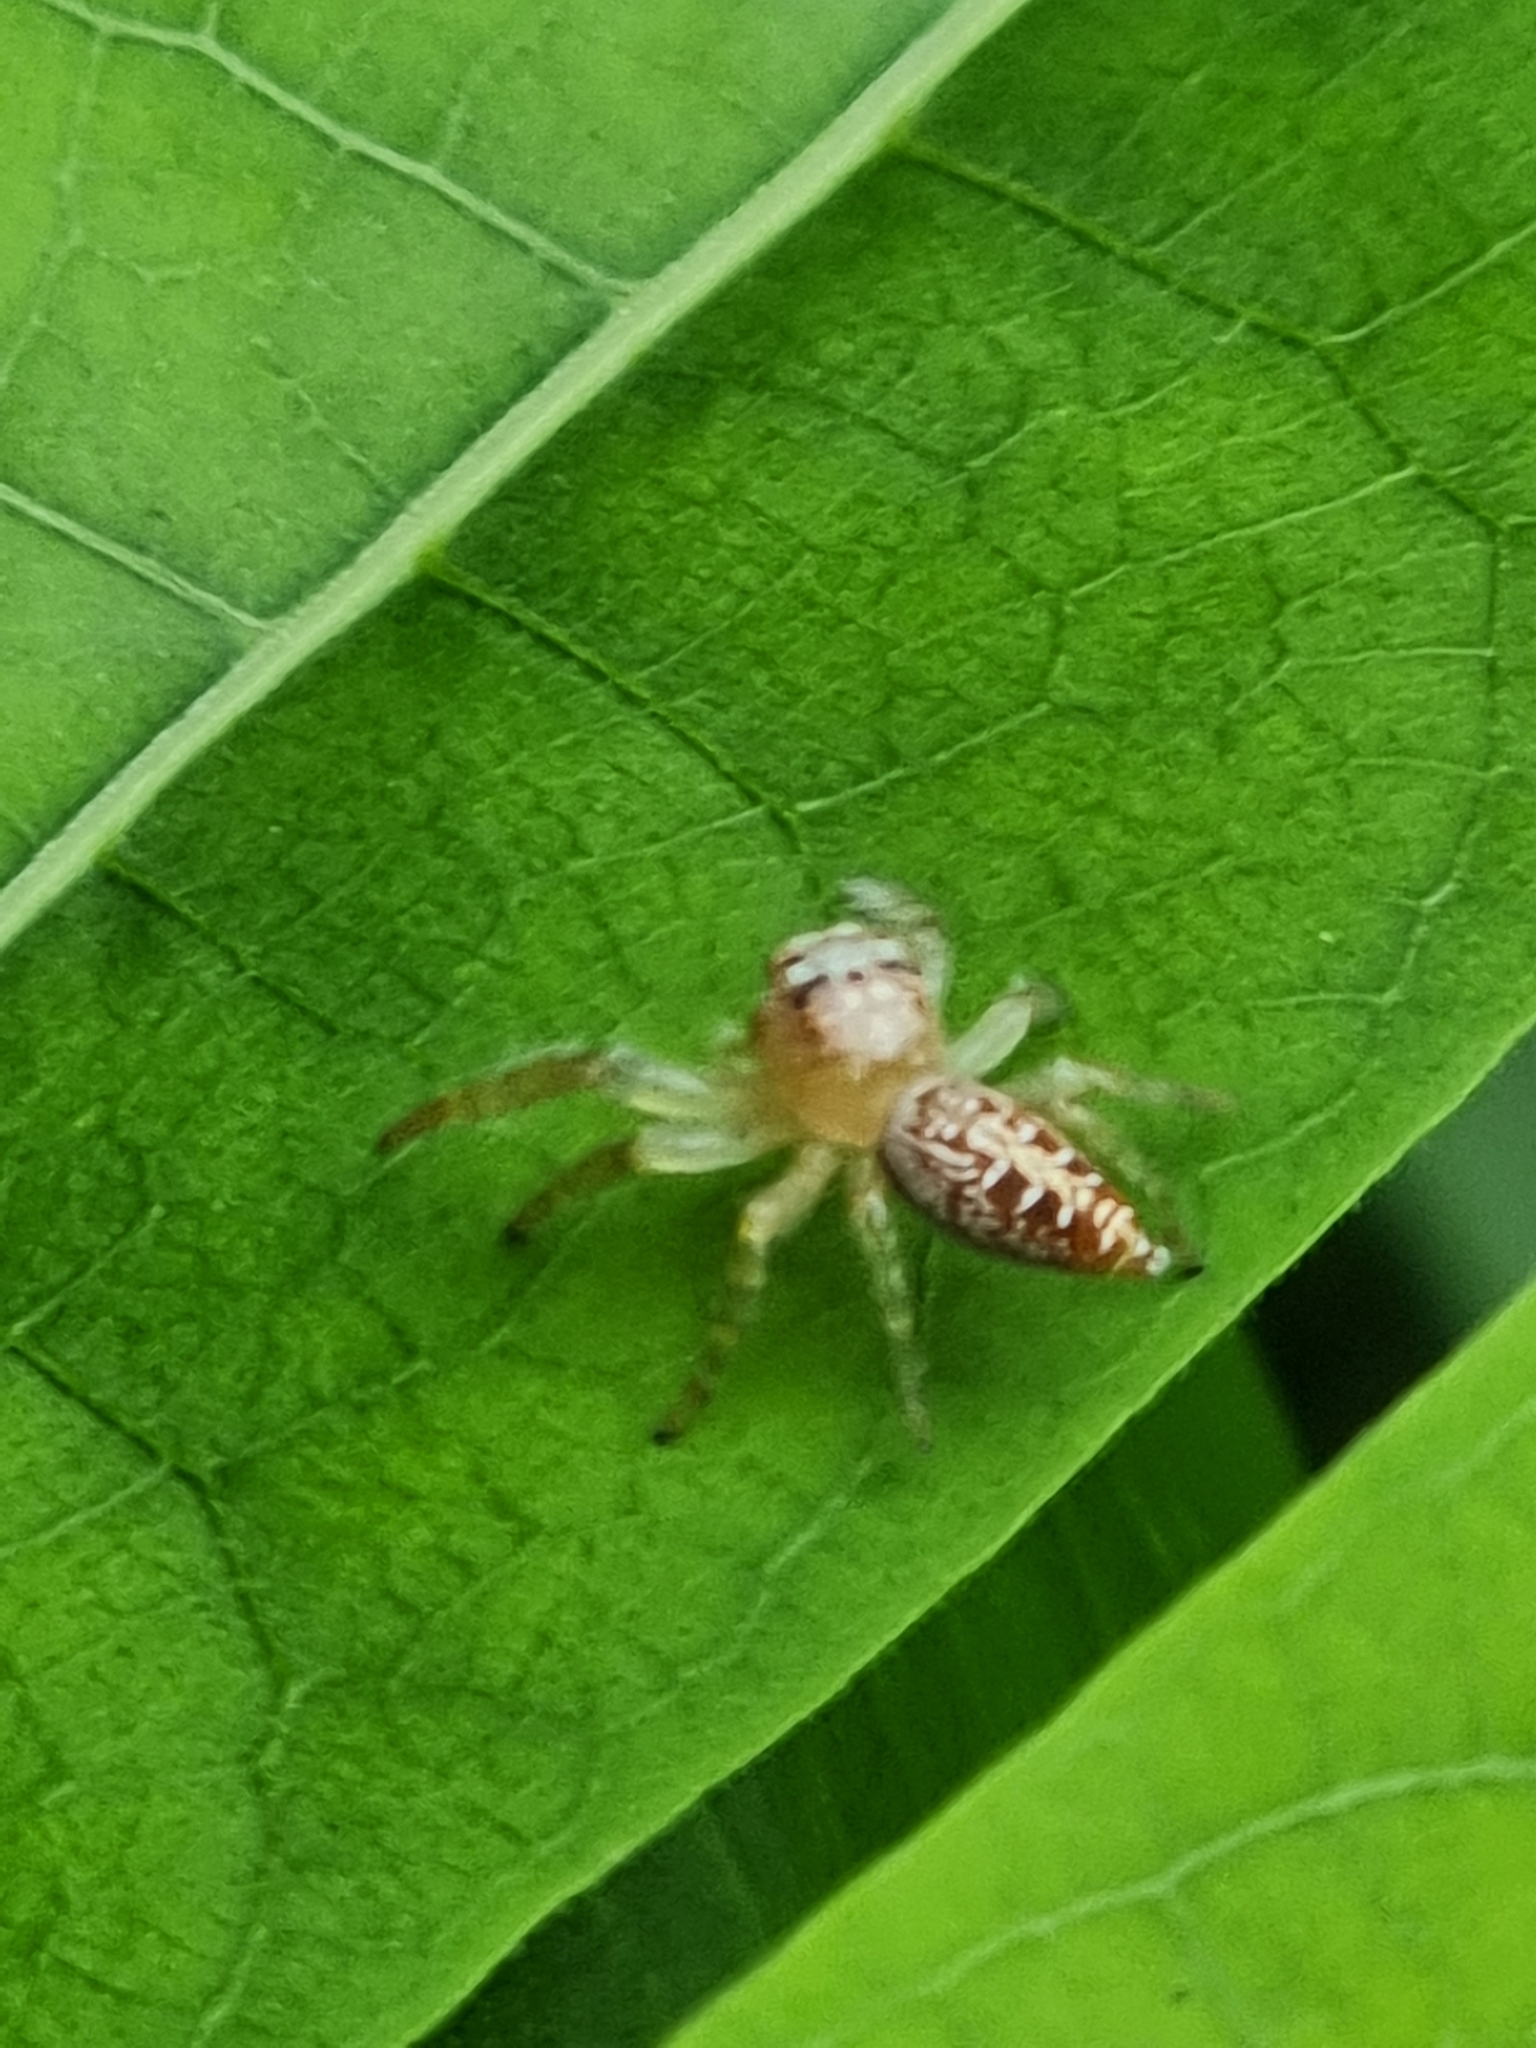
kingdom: Animalia
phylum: Arthropoda
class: Arachnida
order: Araneae
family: Salticidae
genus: Opisthoncus
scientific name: Opisthoncus quadratarius
